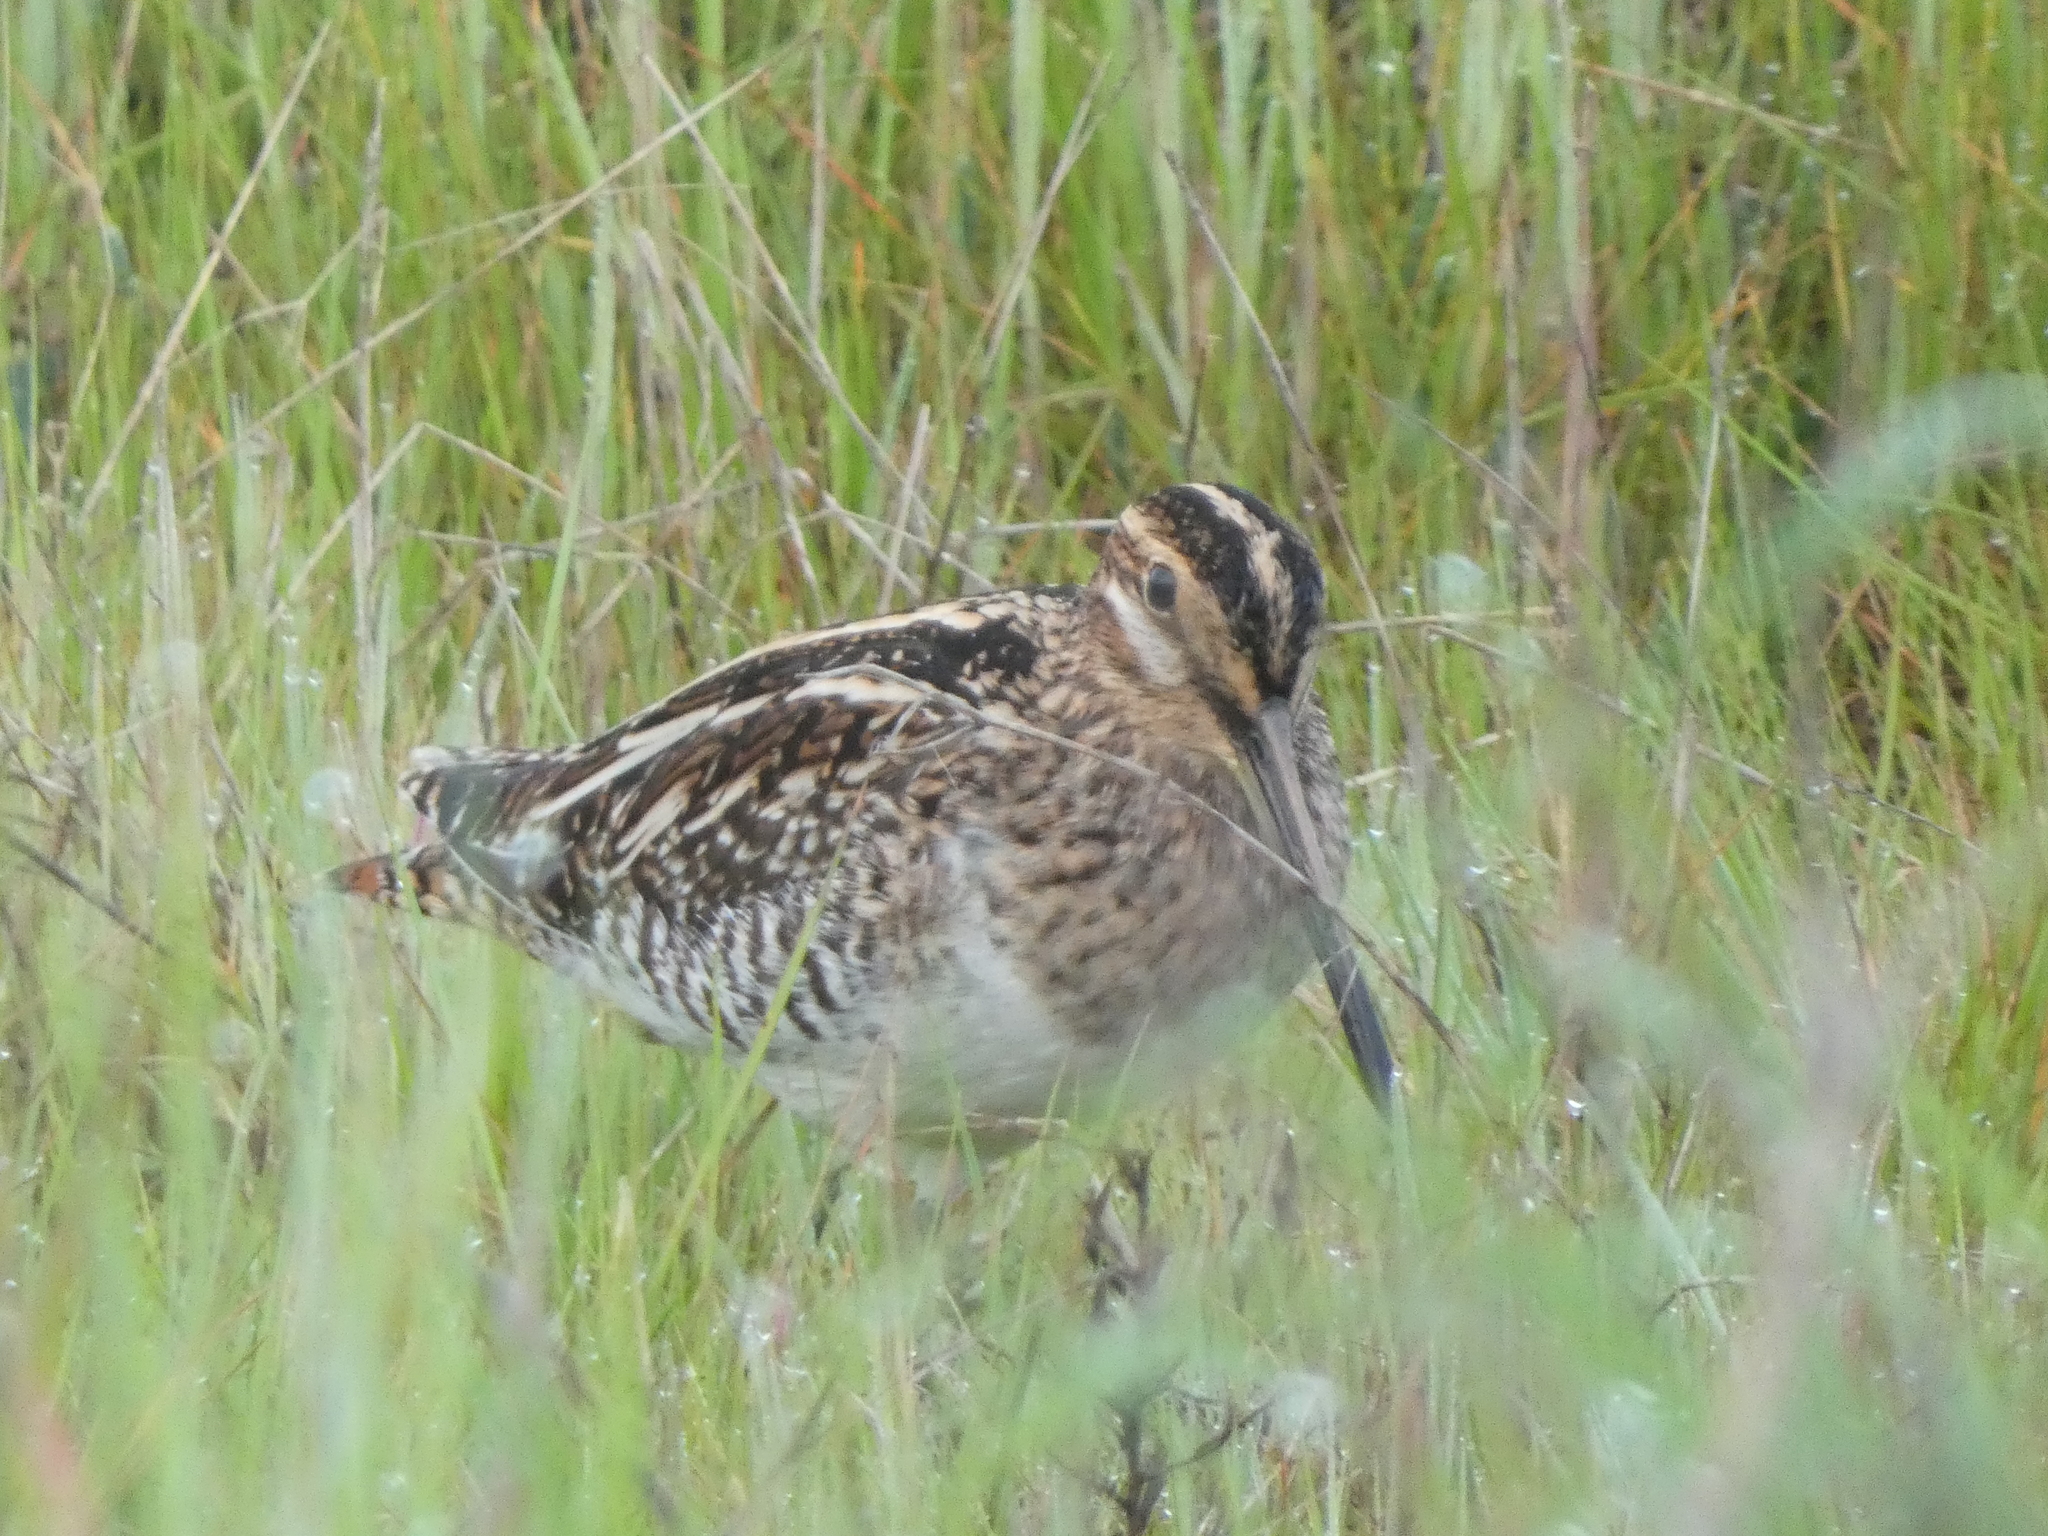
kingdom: Animalia
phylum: Chordata
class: Aves
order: Charadriiformes
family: Scolopacidae
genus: Gallinago
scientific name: Gallinago delicata
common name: Wilson's snipe
